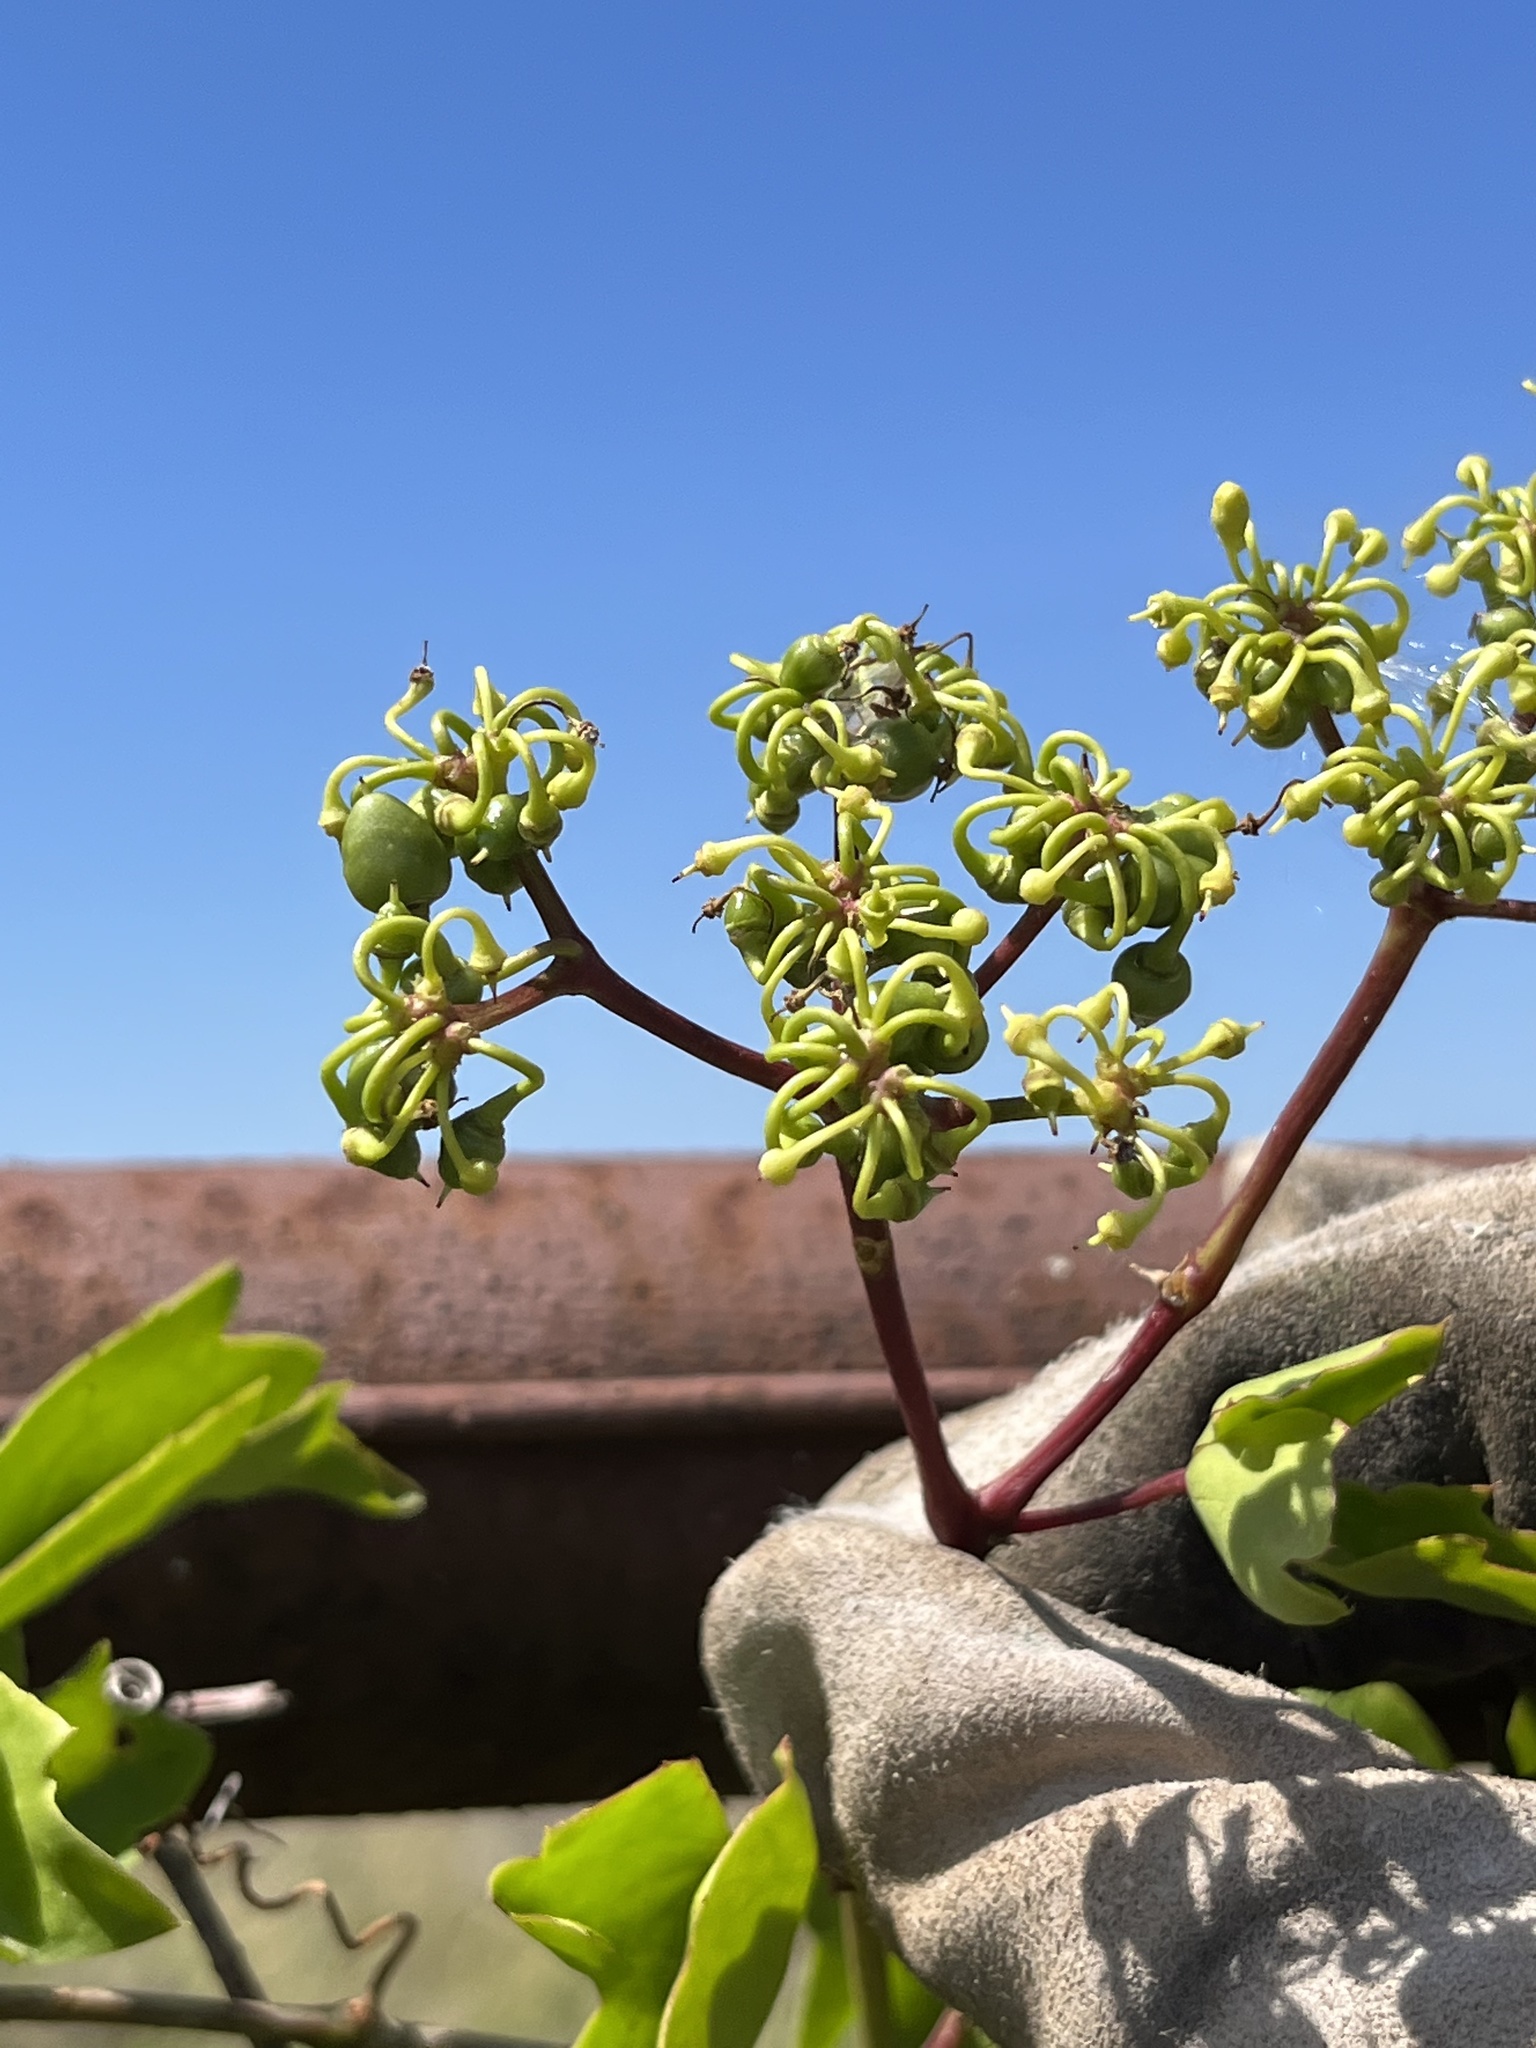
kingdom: Plantae
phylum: Tracheophyta
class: Magnoliopsida
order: Vitales
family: Vitaceae
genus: Cissus
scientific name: Cissus trifoliata
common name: Vine-sorrel
